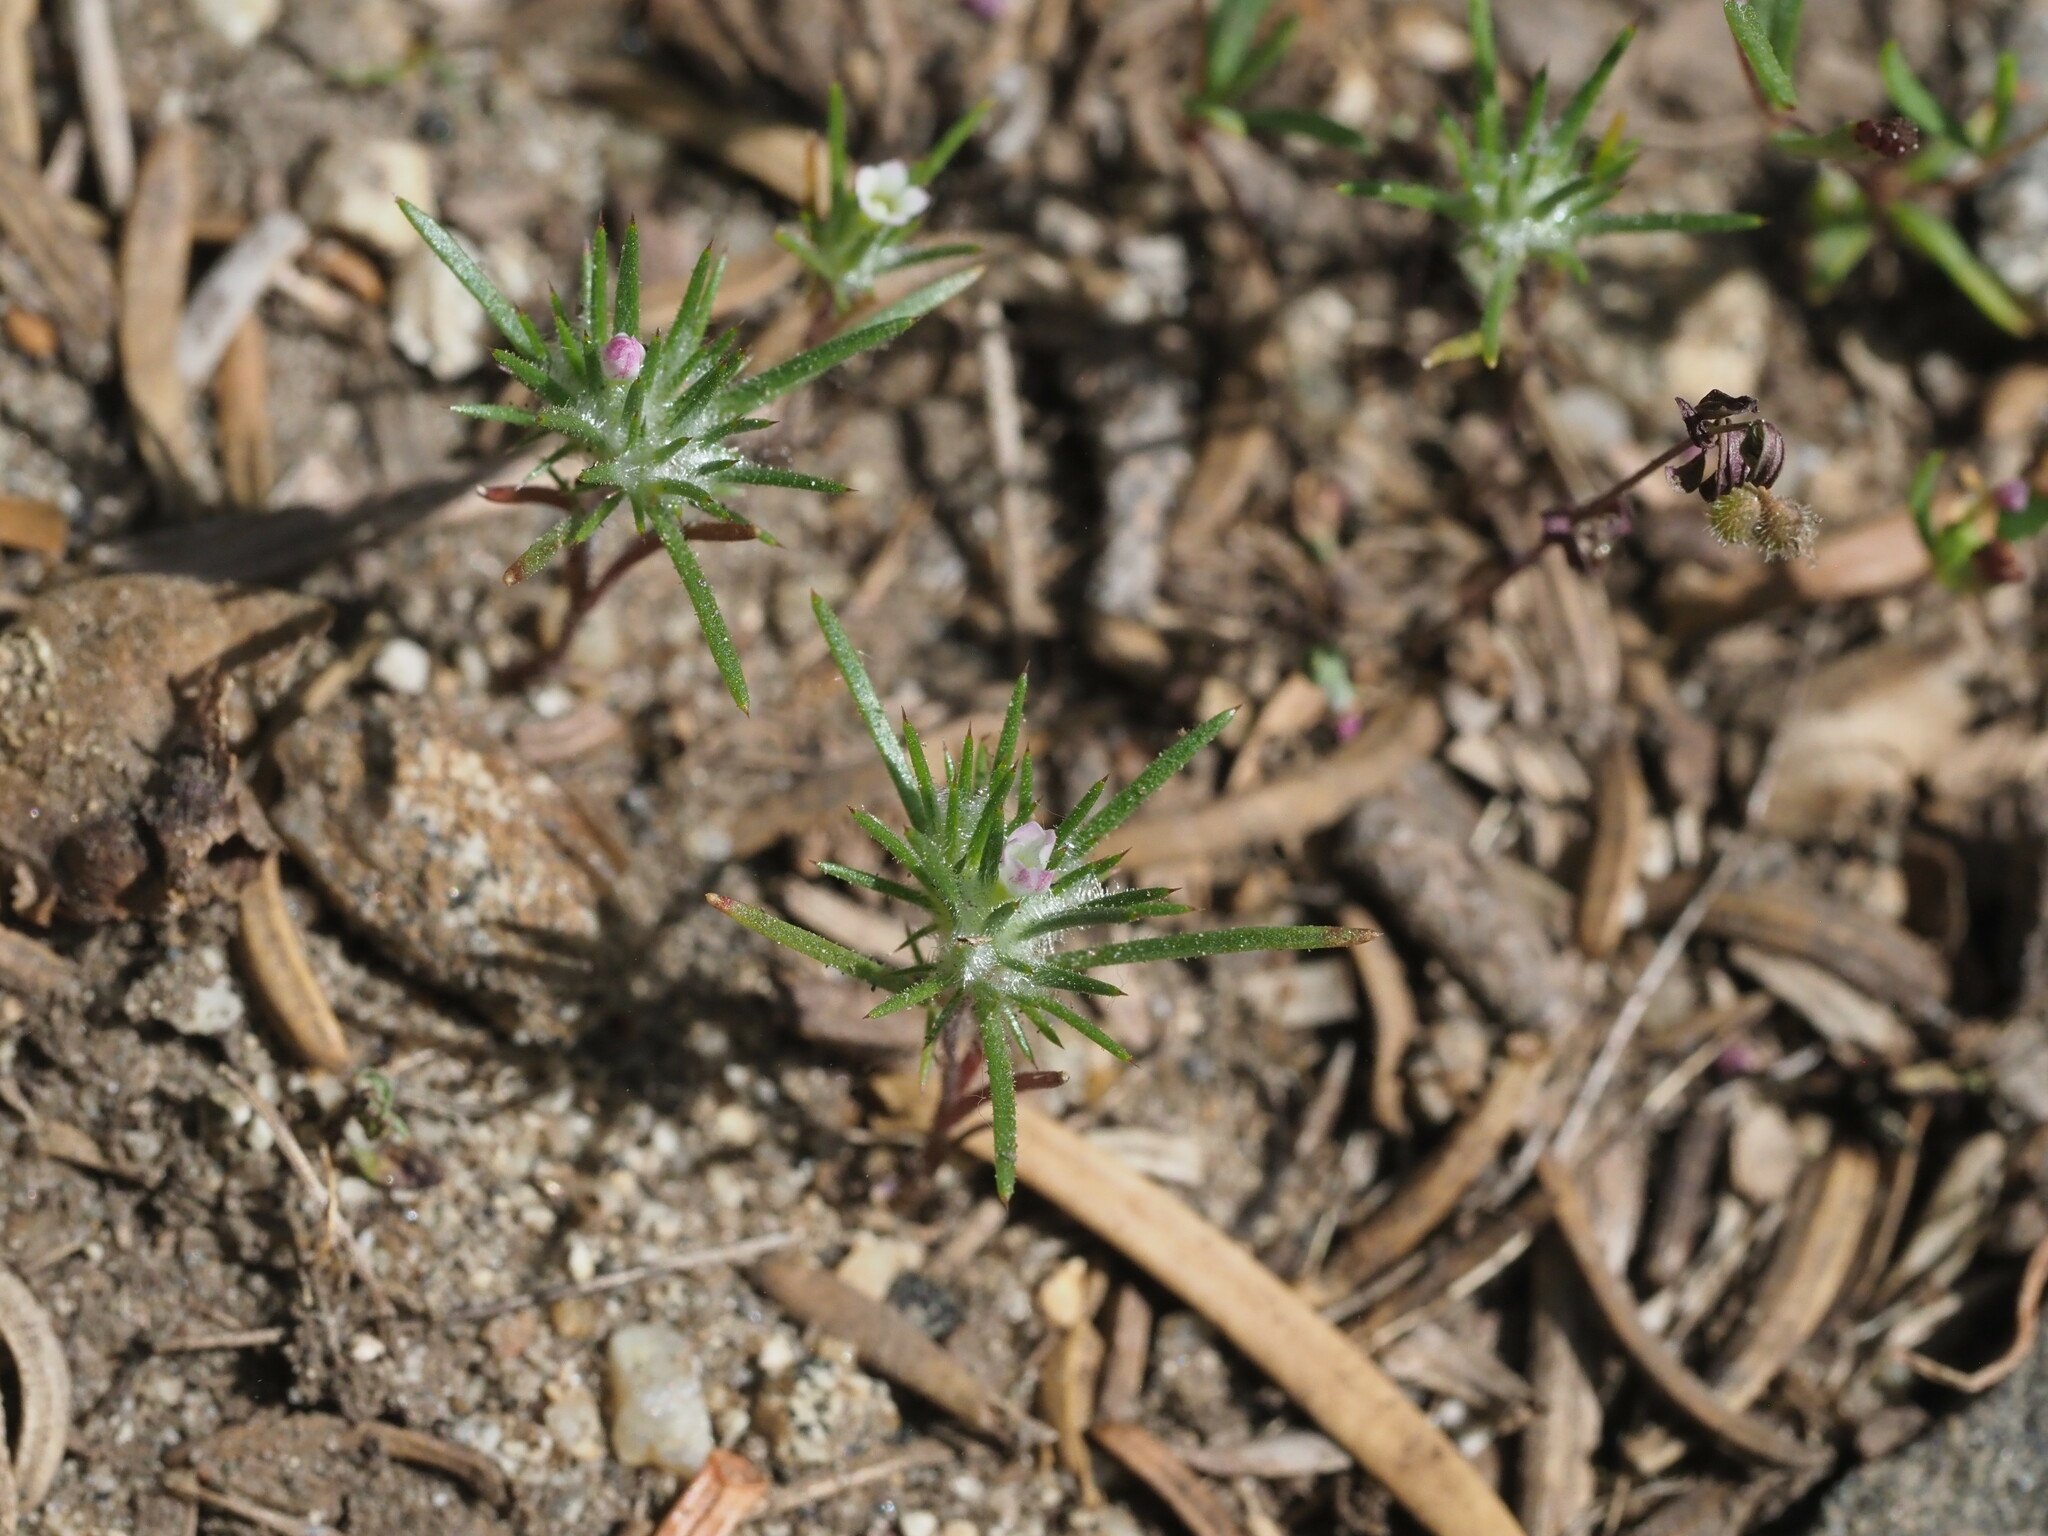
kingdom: Plantae
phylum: Tracheophyta
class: Magnoliopsida
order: Ericales
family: Polemoniaceae
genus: Navarretia
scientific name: Navarretia divaricata
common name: Mountain navarretia
